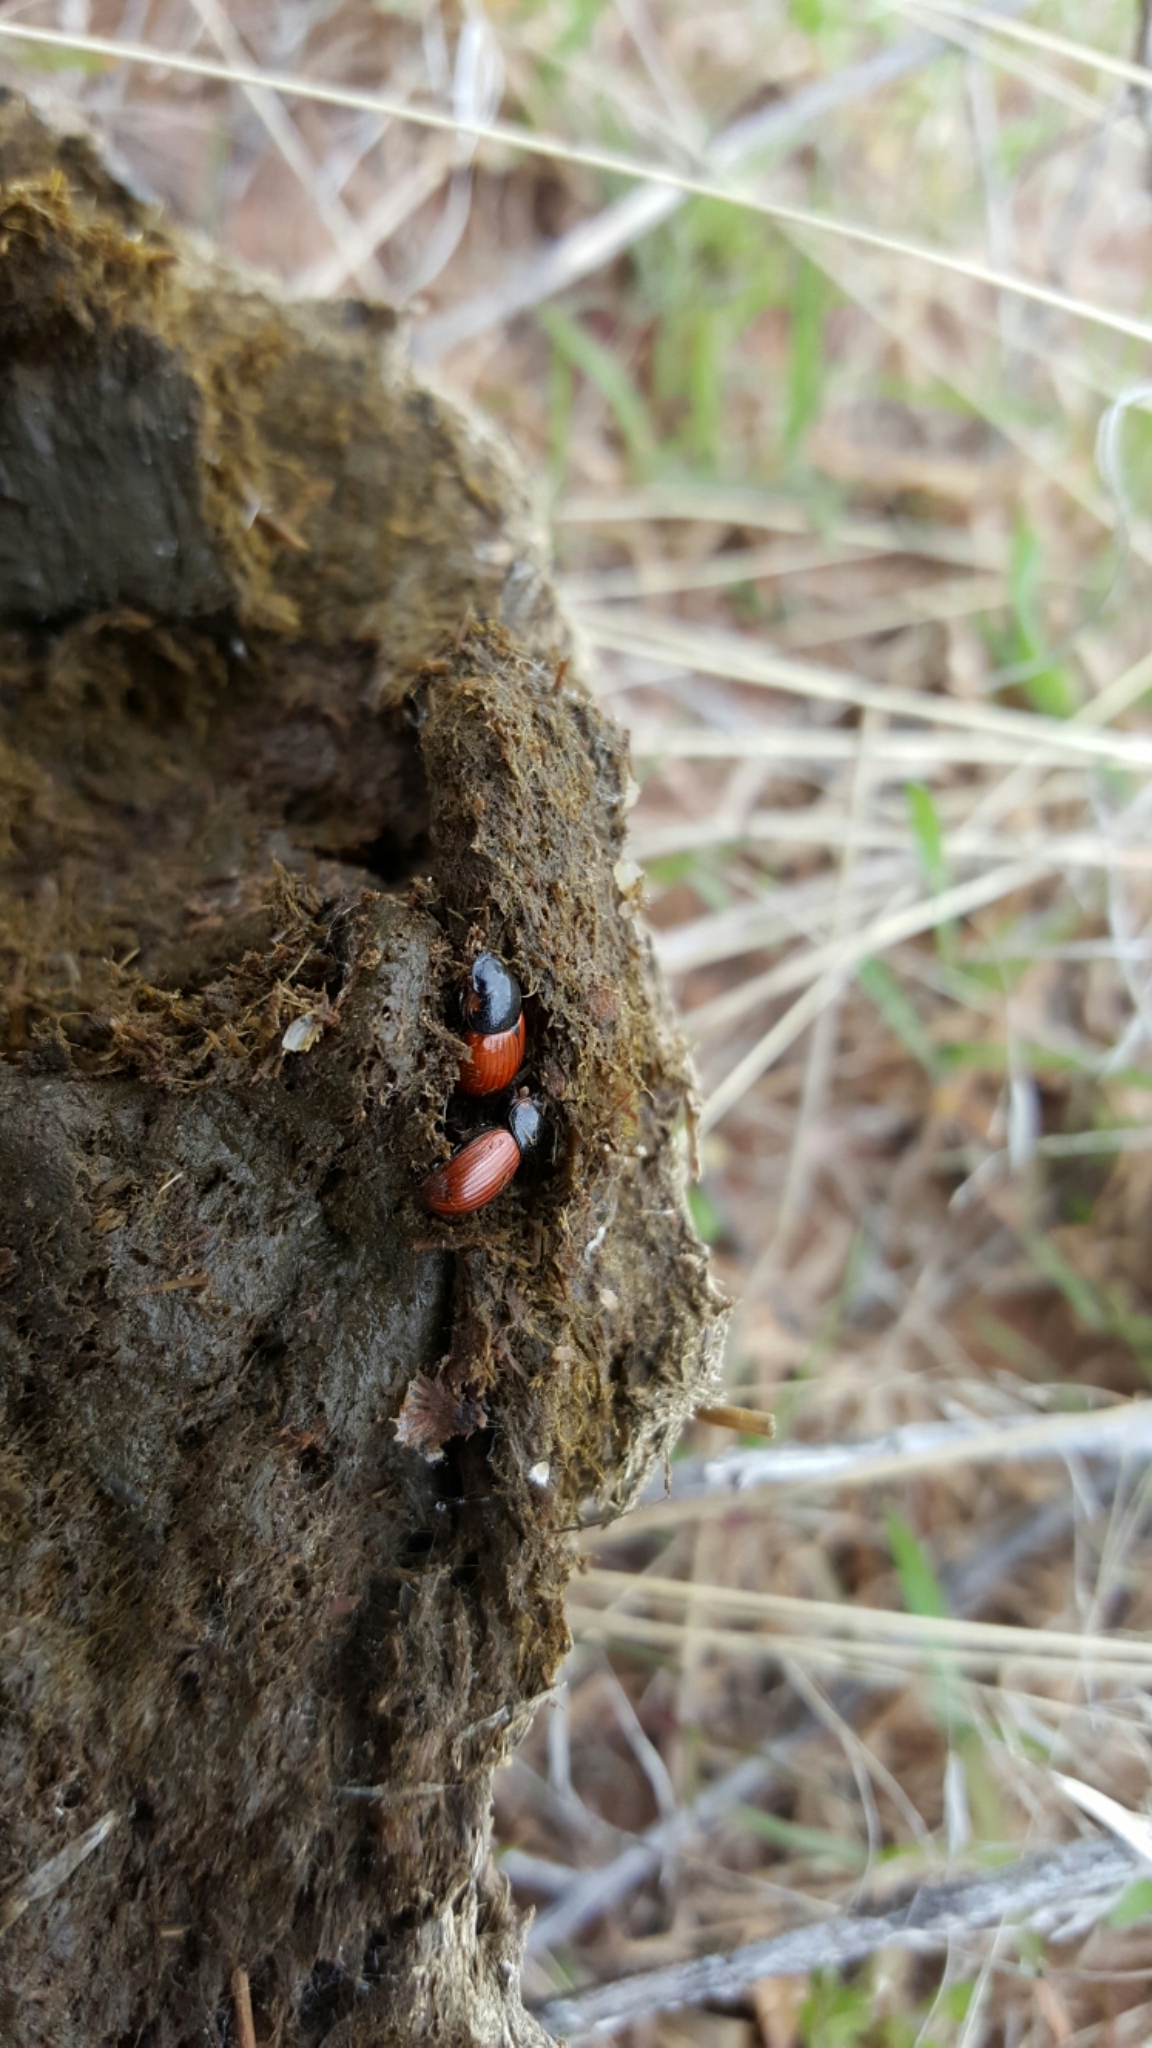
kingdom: Animalia
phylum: Arthropoda
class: Insecta
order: Coleoptera
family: Scarabaeidae
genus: Aphodius
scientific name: Aphodius fimetarius
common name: Common dung beetle
